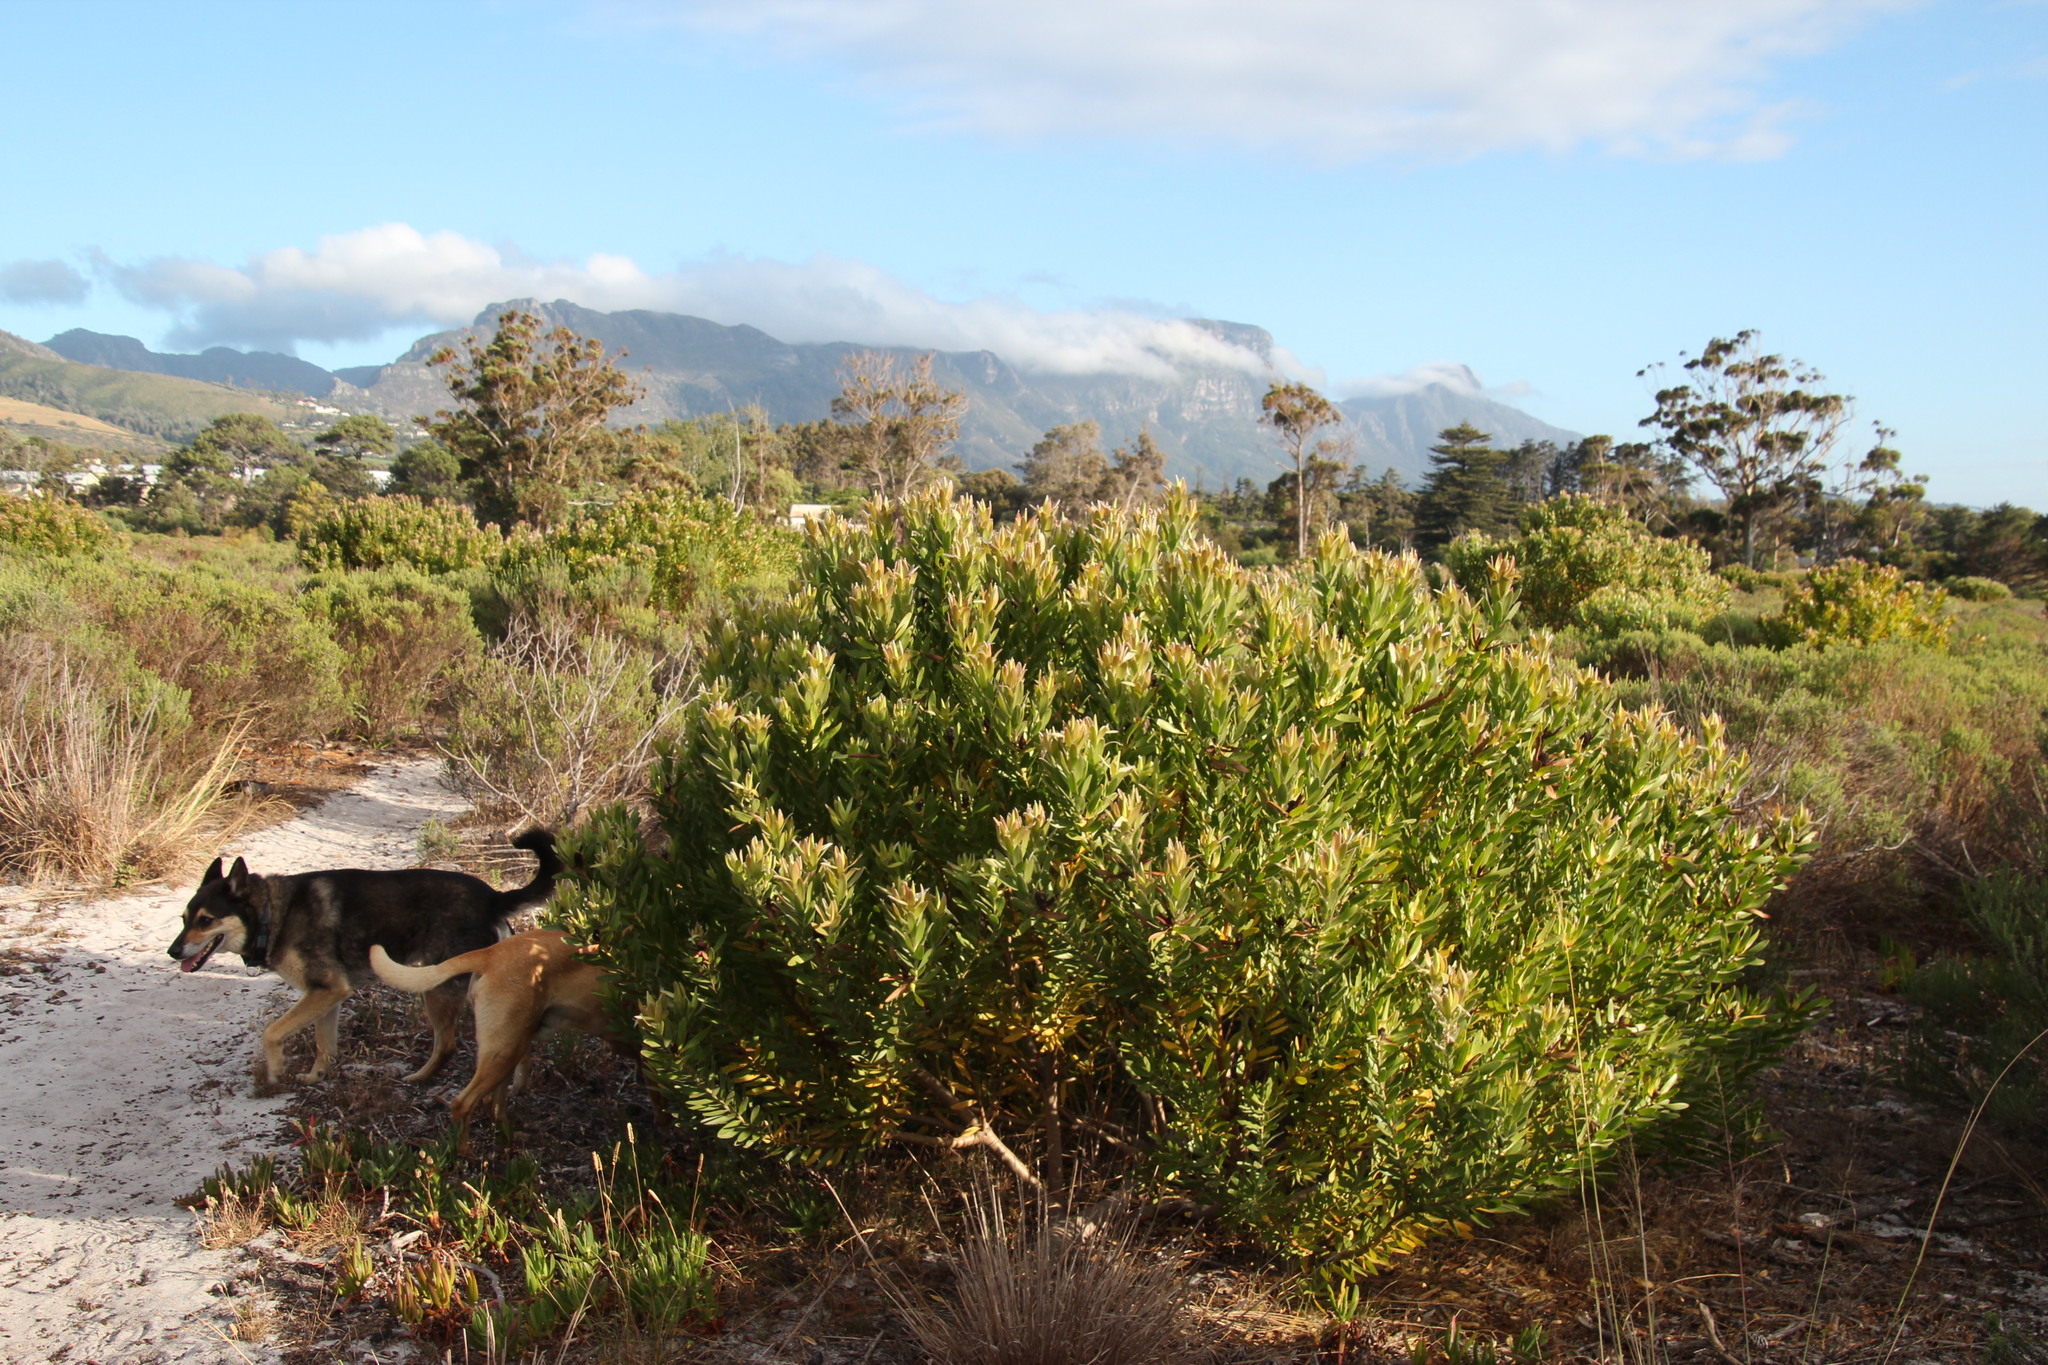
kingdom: Plantae
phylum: Tracheophyta
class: Magnoliopsida
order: Proteales
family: Proteaceae
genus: Leucadendron
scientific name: Leucadendron laureolum
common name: Golden sunshinebush
